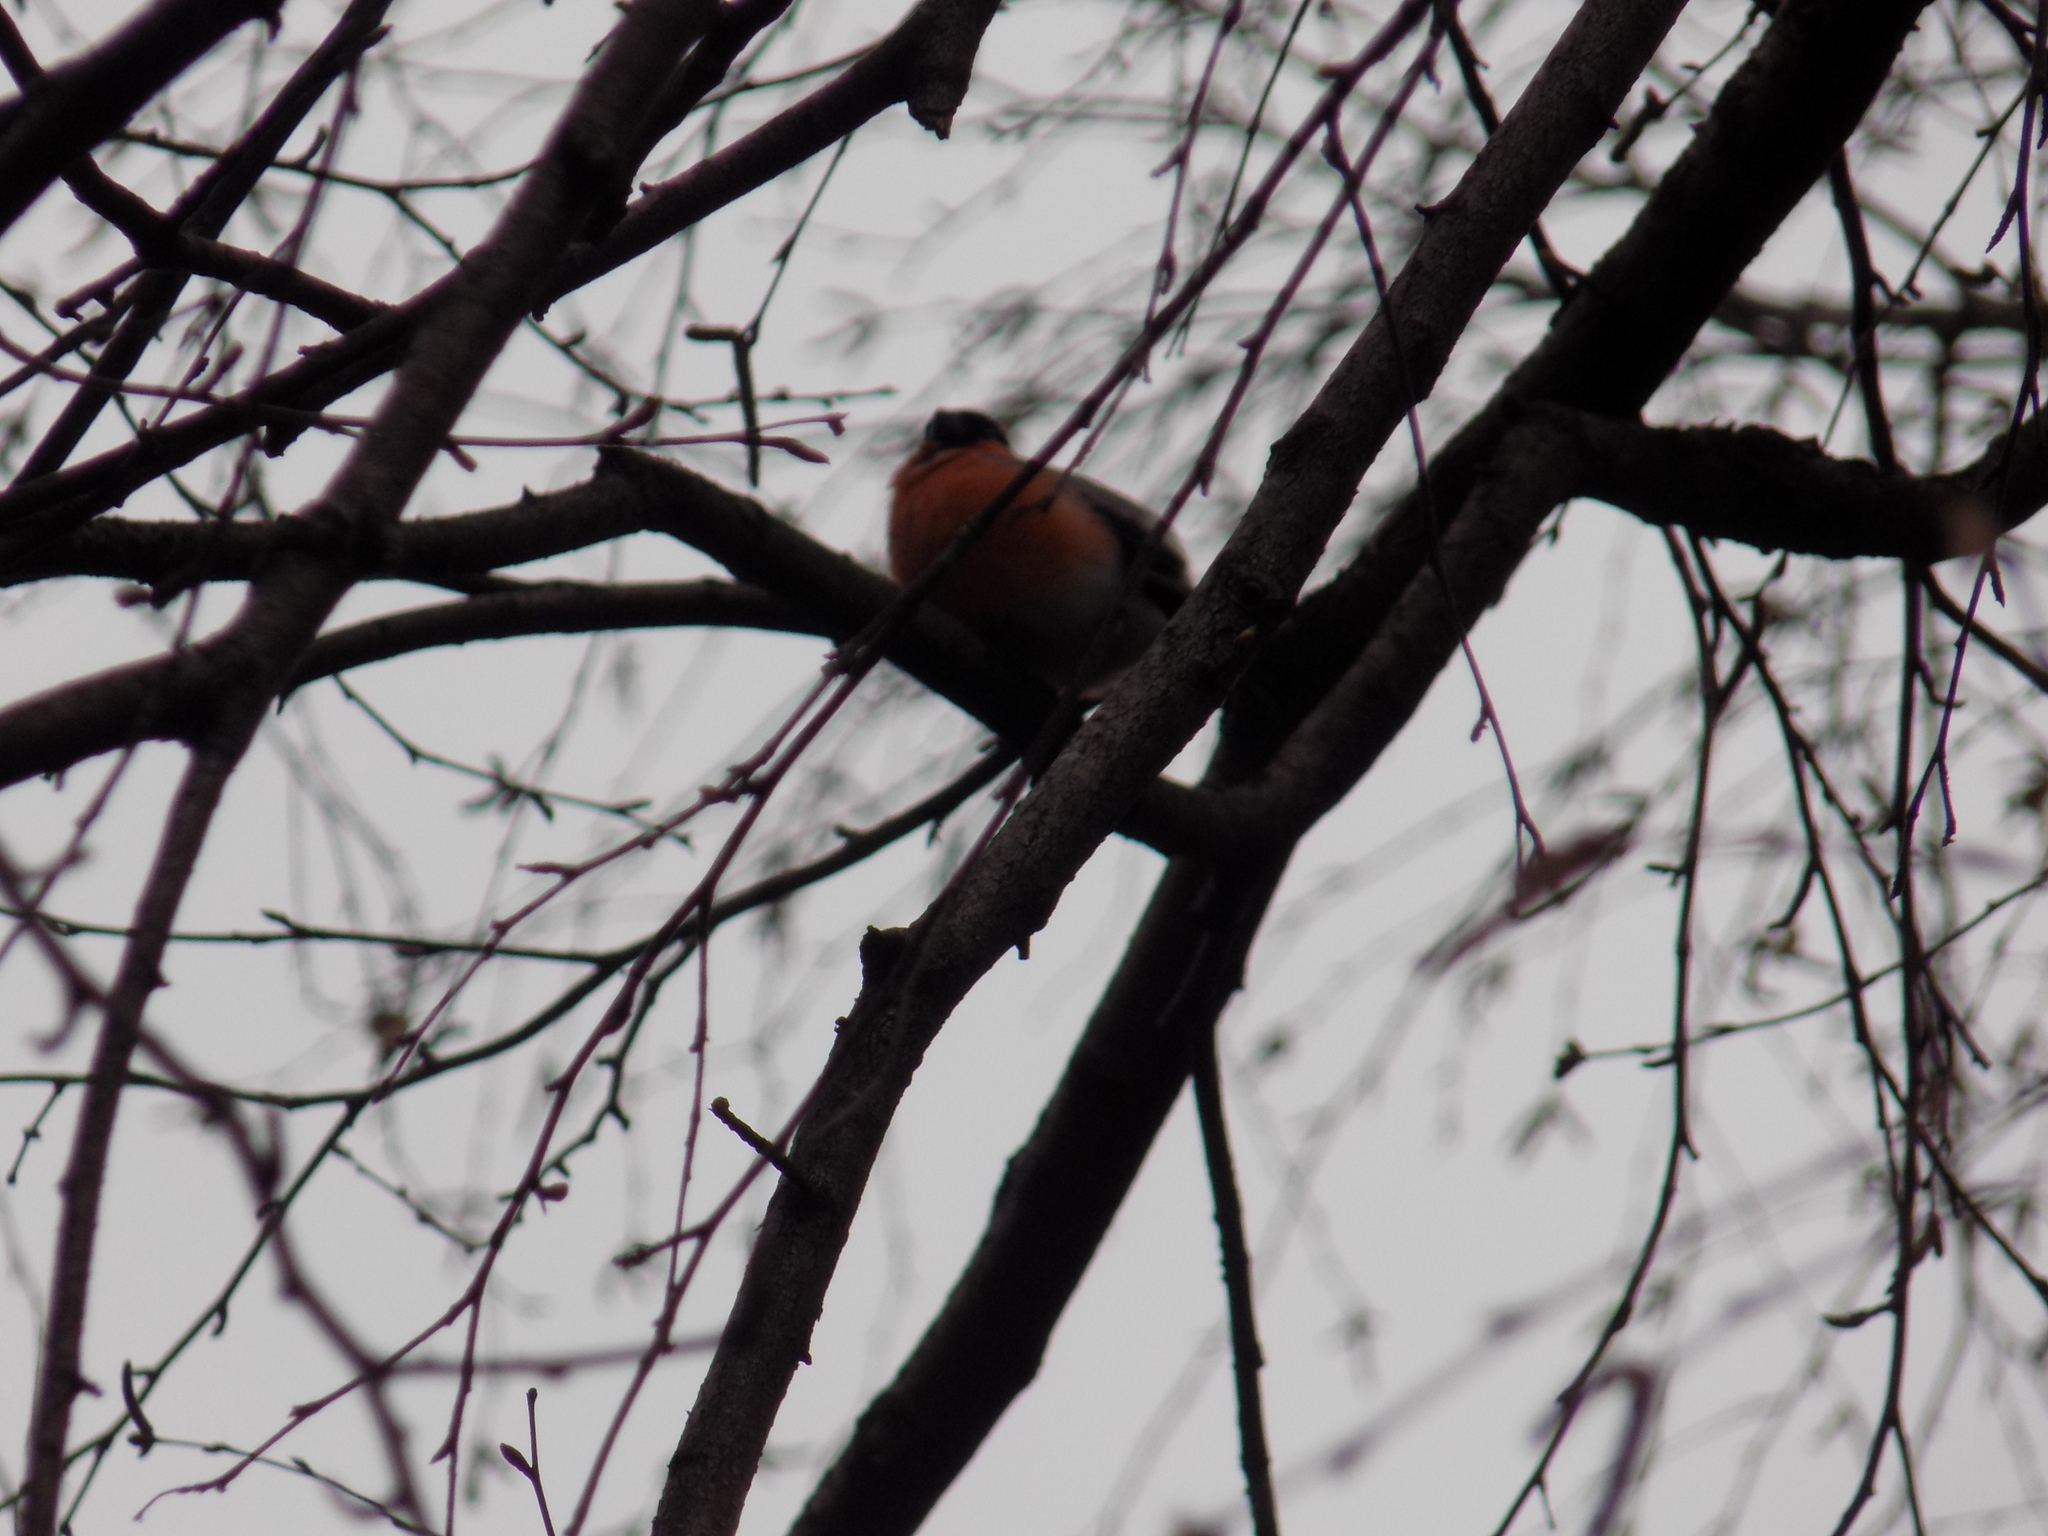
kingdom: Animalia
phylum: Chordata
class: Aves
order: Passeriformes
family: Fringillidae
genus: Pyrrhula
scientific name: Pyrrhula pyrrhula
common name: Eurasian bullfinch
